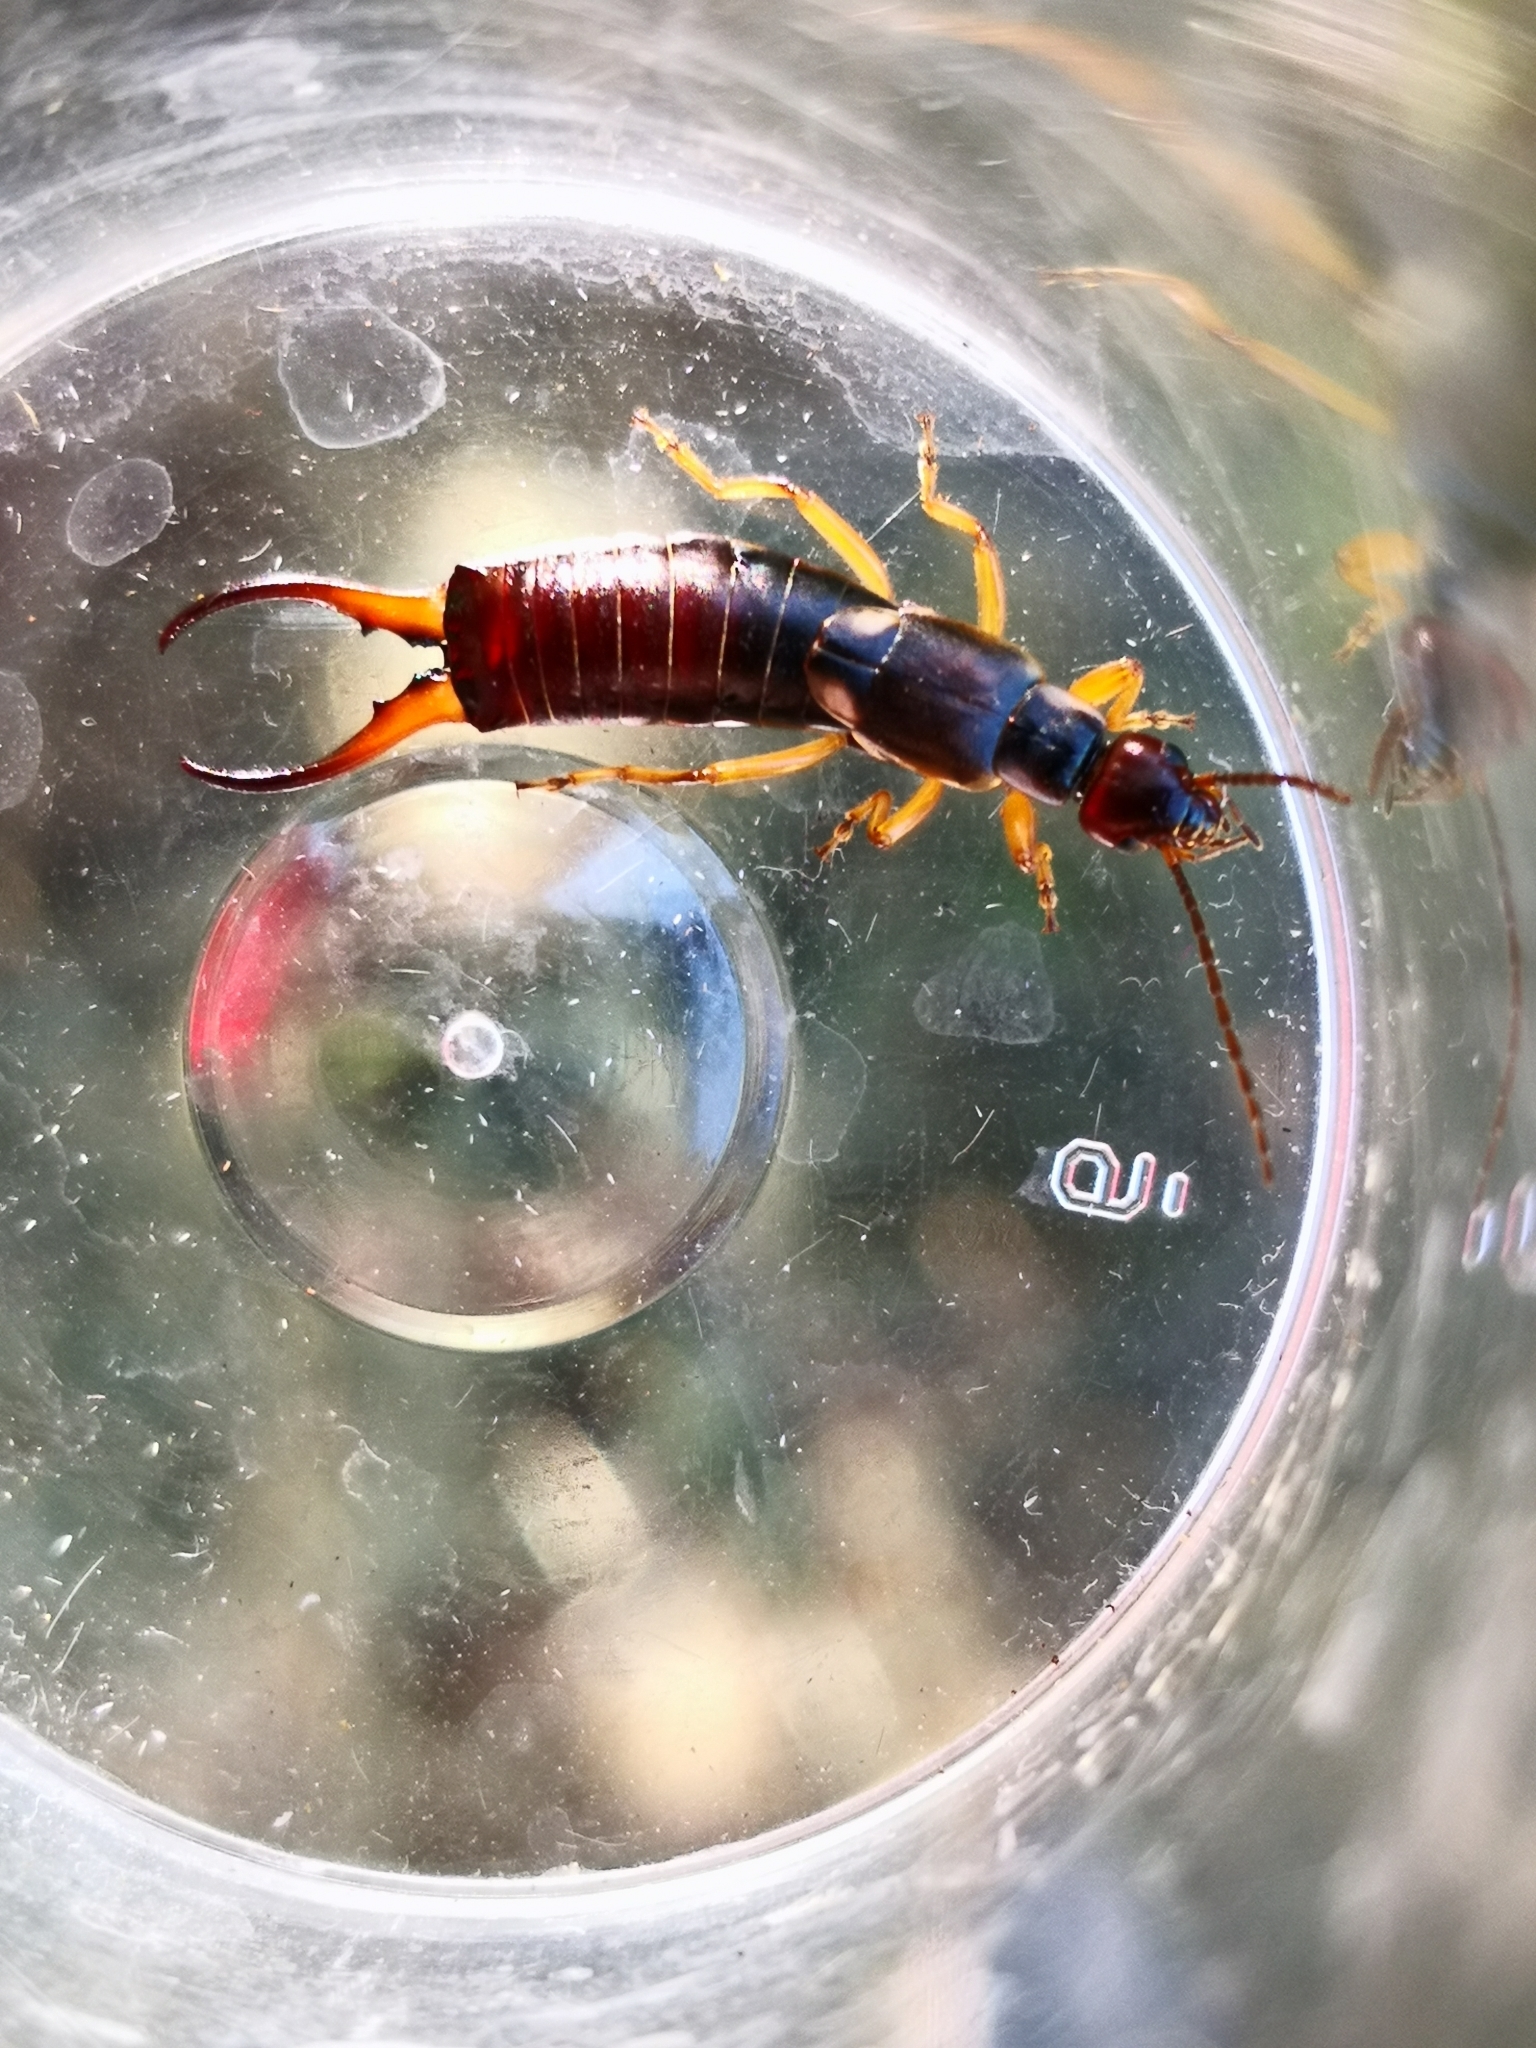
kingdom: Animalia
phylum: Arthropoda
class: Insecta
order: Dermaptera
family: Forficulidae
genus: Forficula
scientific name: Forficula
